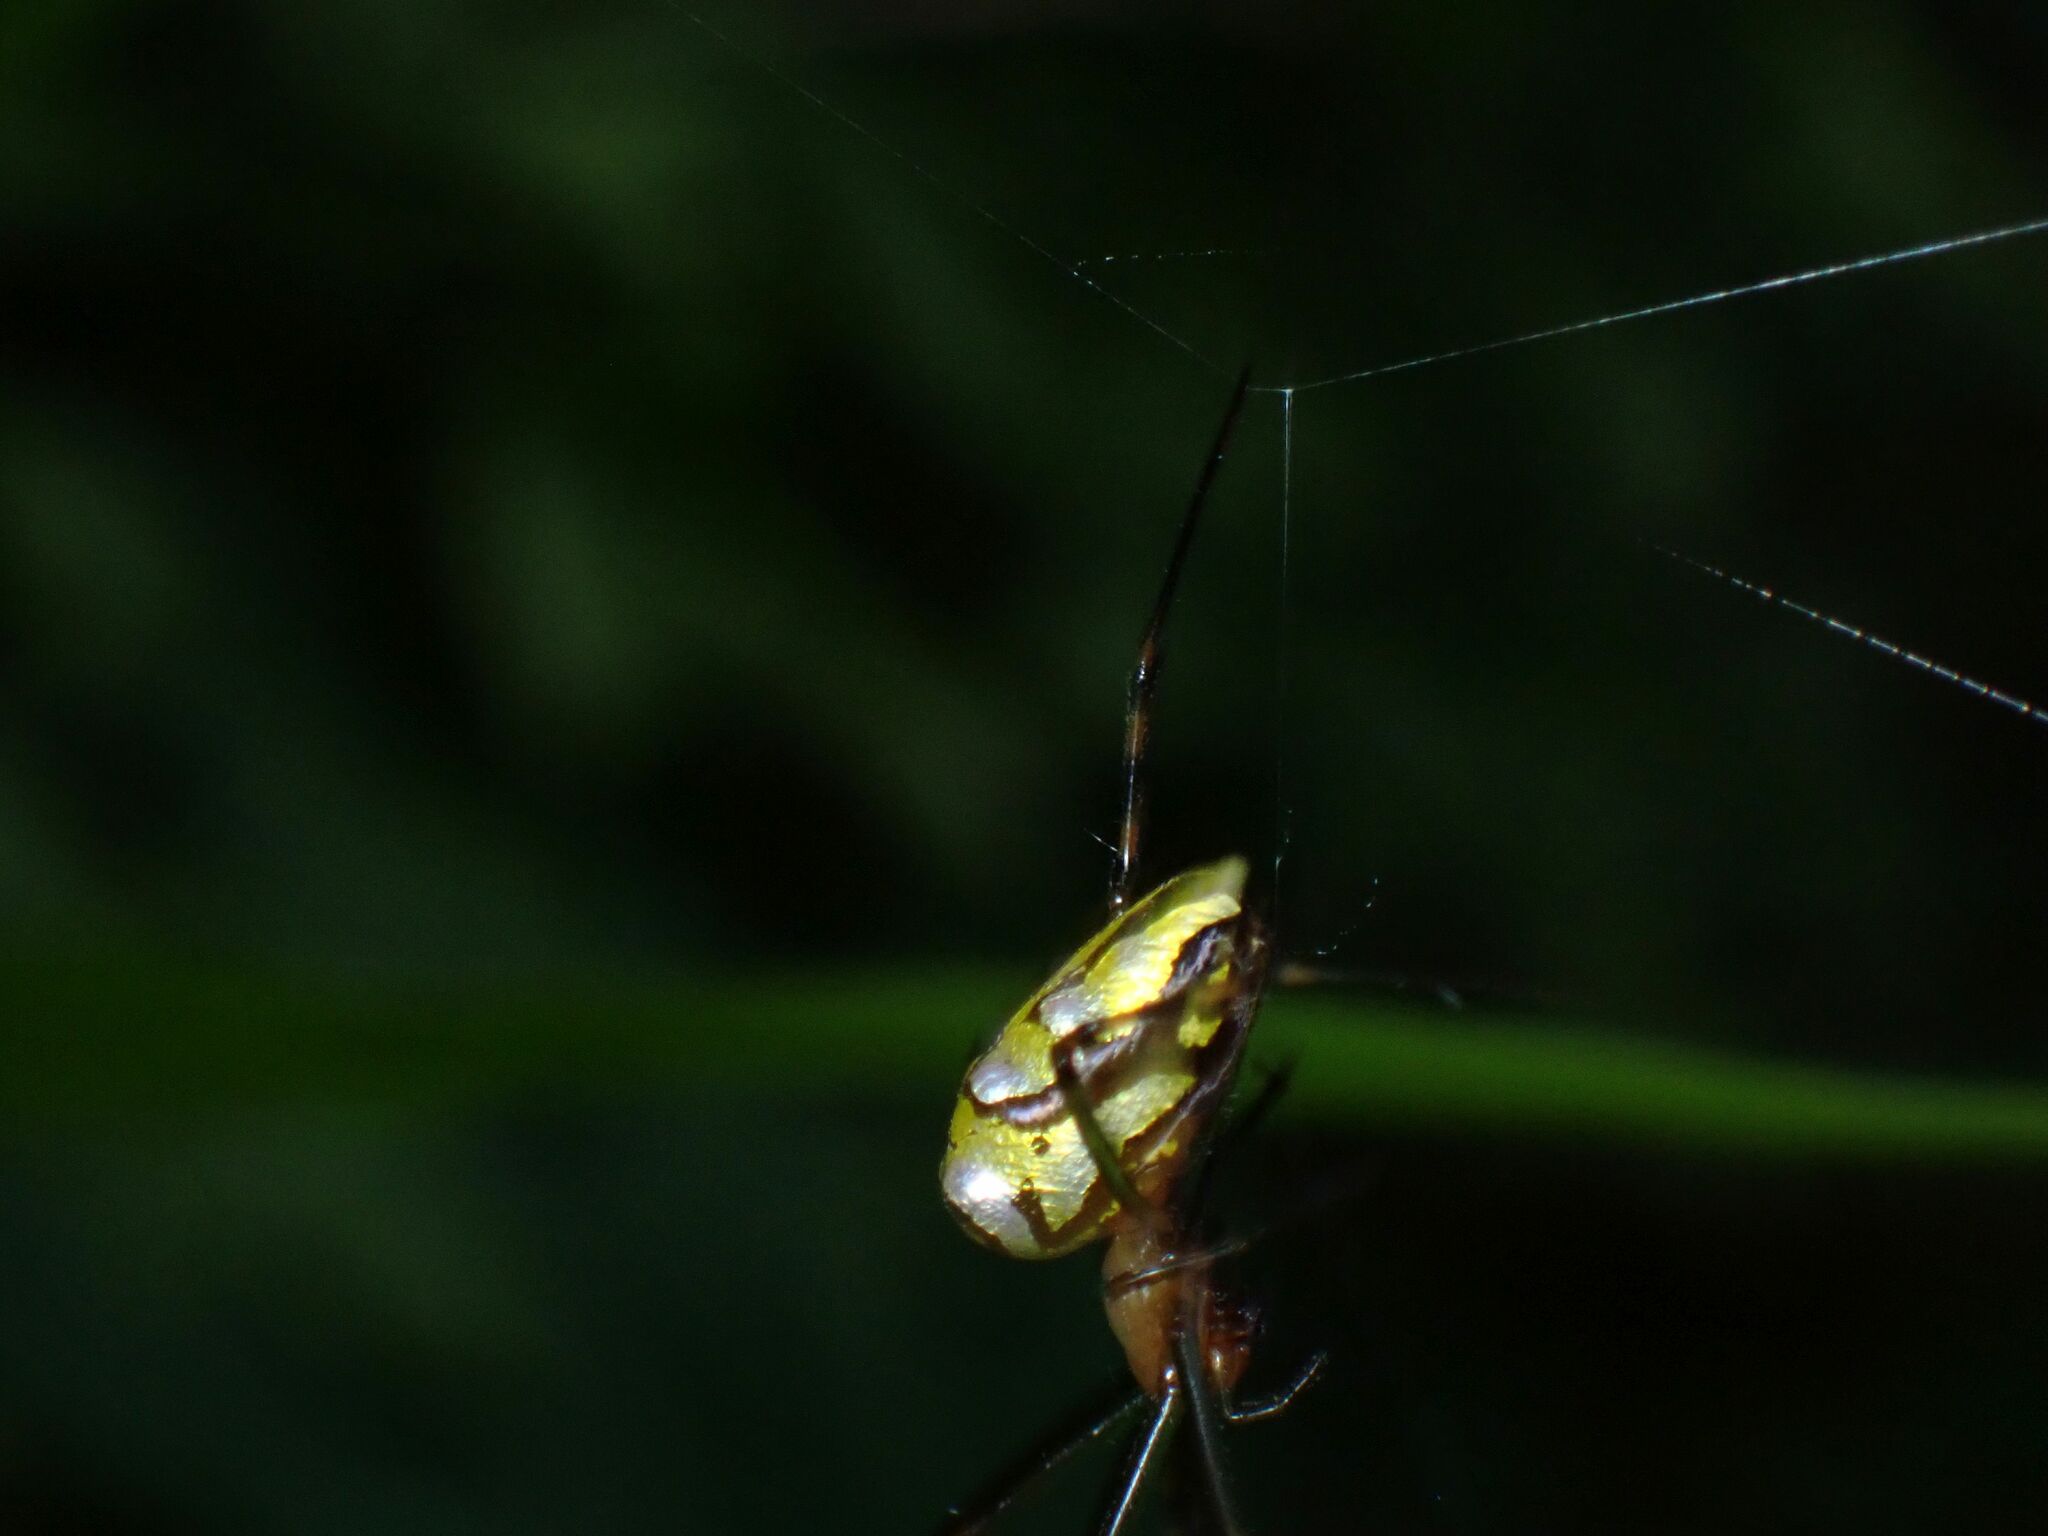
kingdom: Animalia
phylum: Arthropoda
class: Arachnida
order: Araneae
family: Tetragnathidae
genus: Leucauge
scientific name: Leucauge granulata
